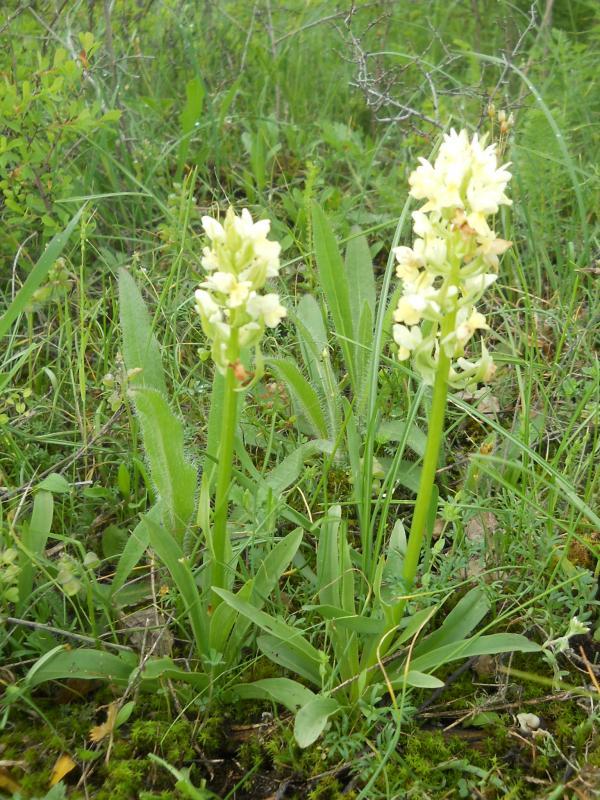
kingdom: Plantae
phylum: Tracheophyta
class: Liliopsida
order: Asparagales
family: Orchidaceae
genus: Dactylorhiza
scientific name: Dactylorhiza romana
